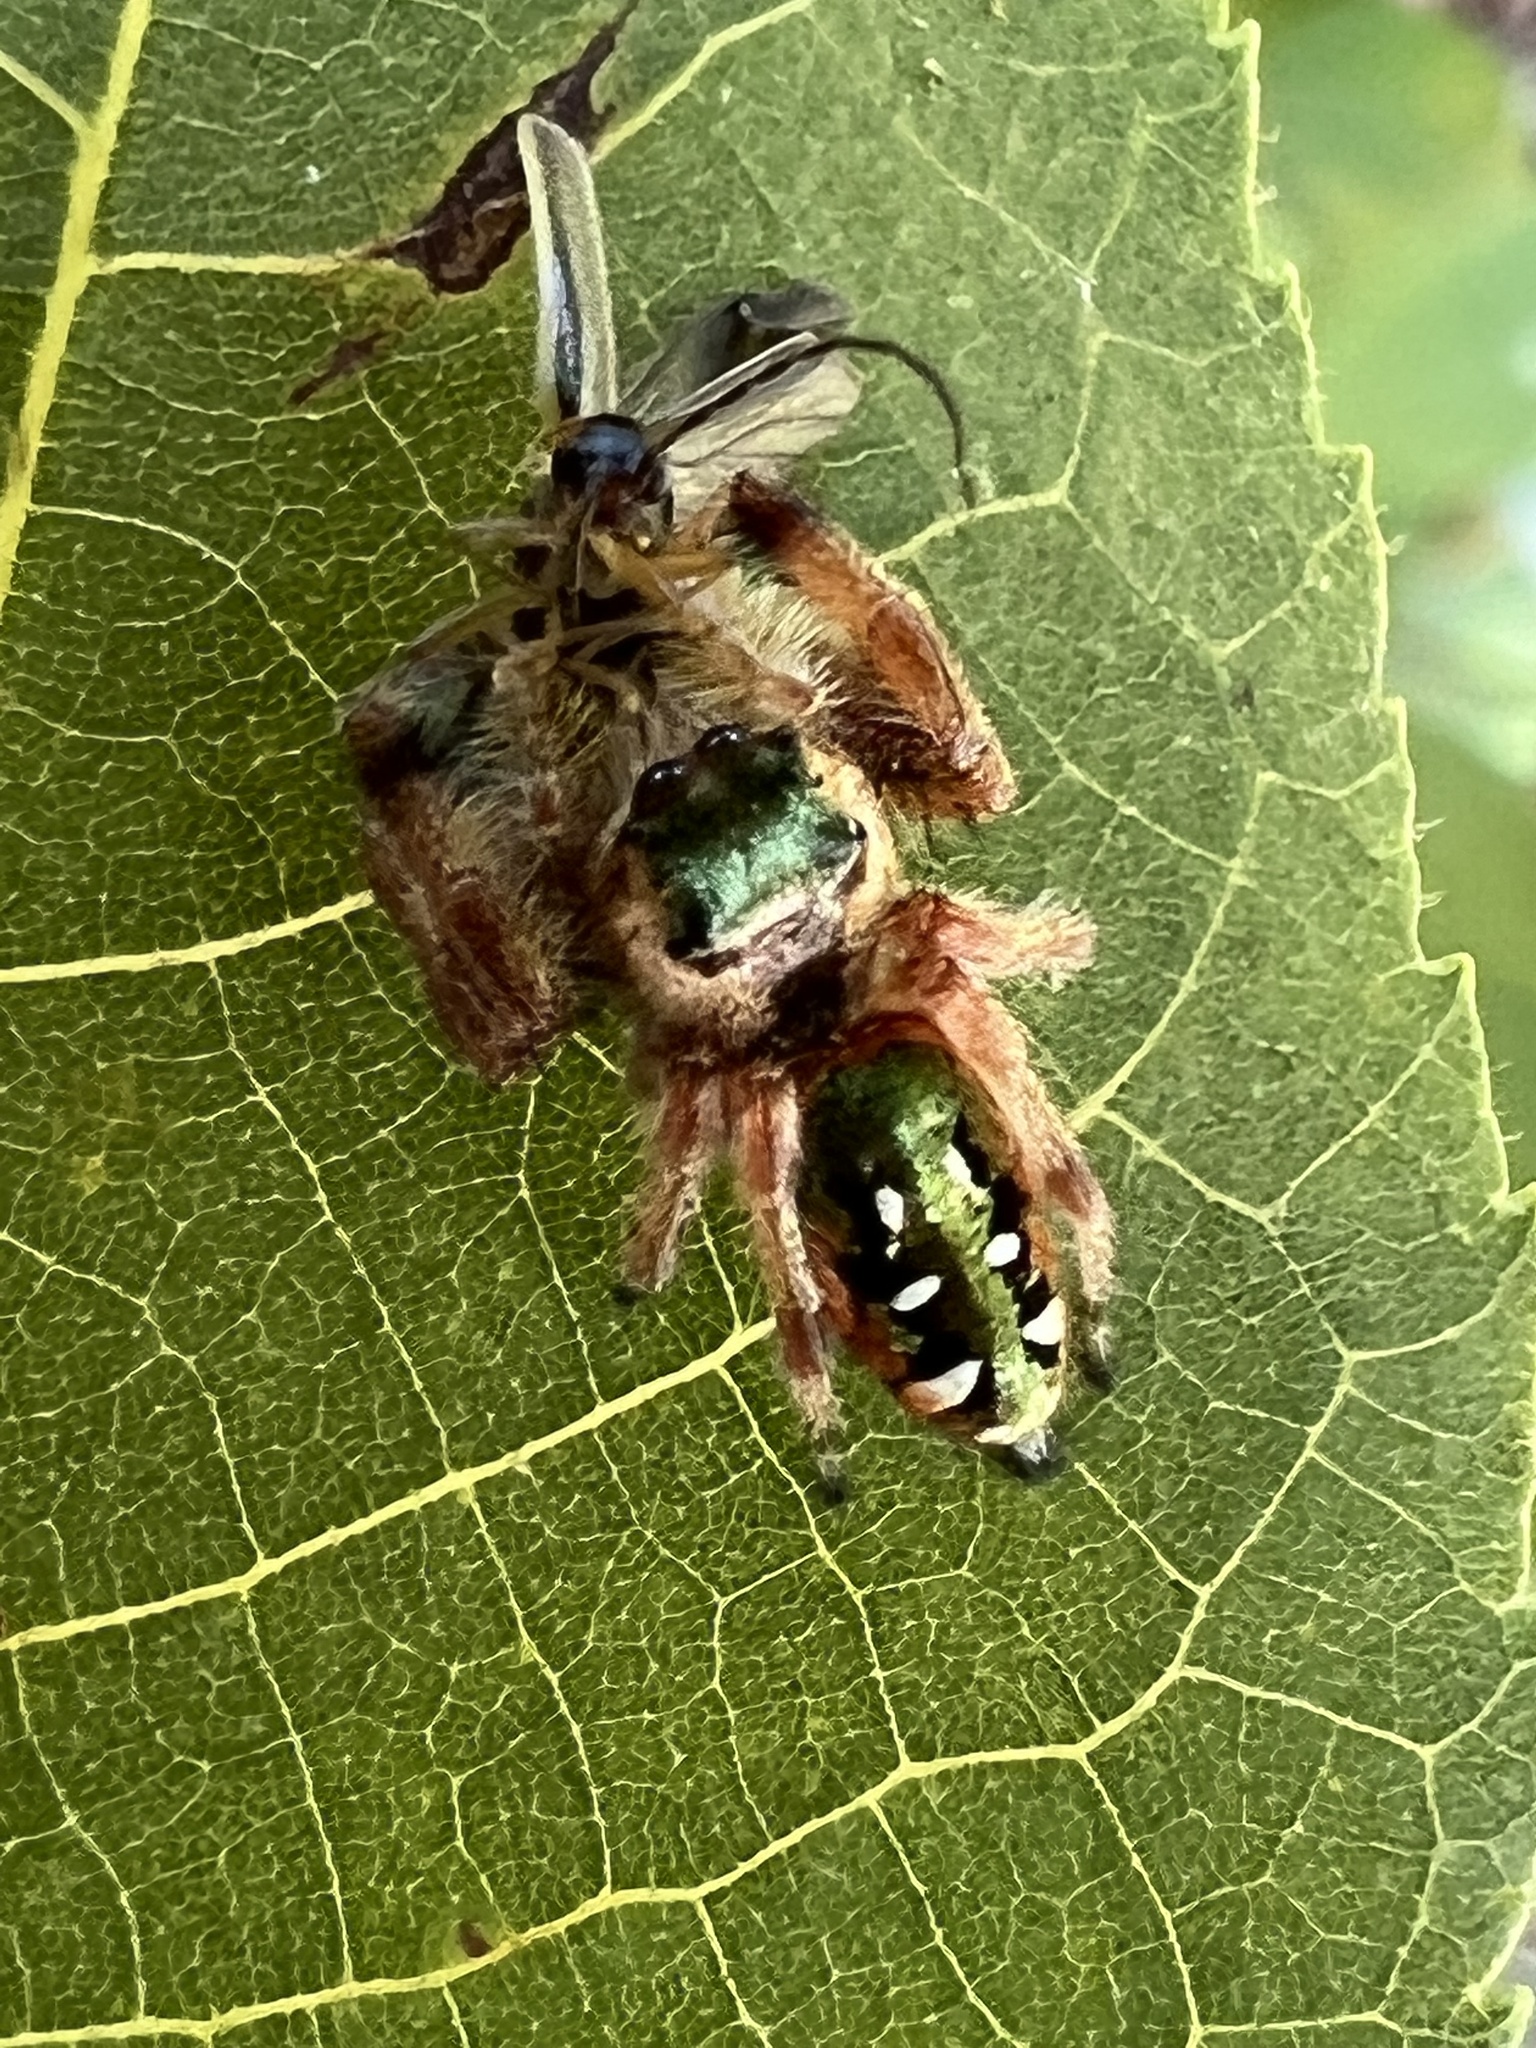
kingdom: Animalia
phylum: Arthropoda
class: Arachnida
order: Araneae
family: Salticidae
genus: Paraphidippus
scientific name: Paraphidippus aurantius
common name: Jumping spiders
